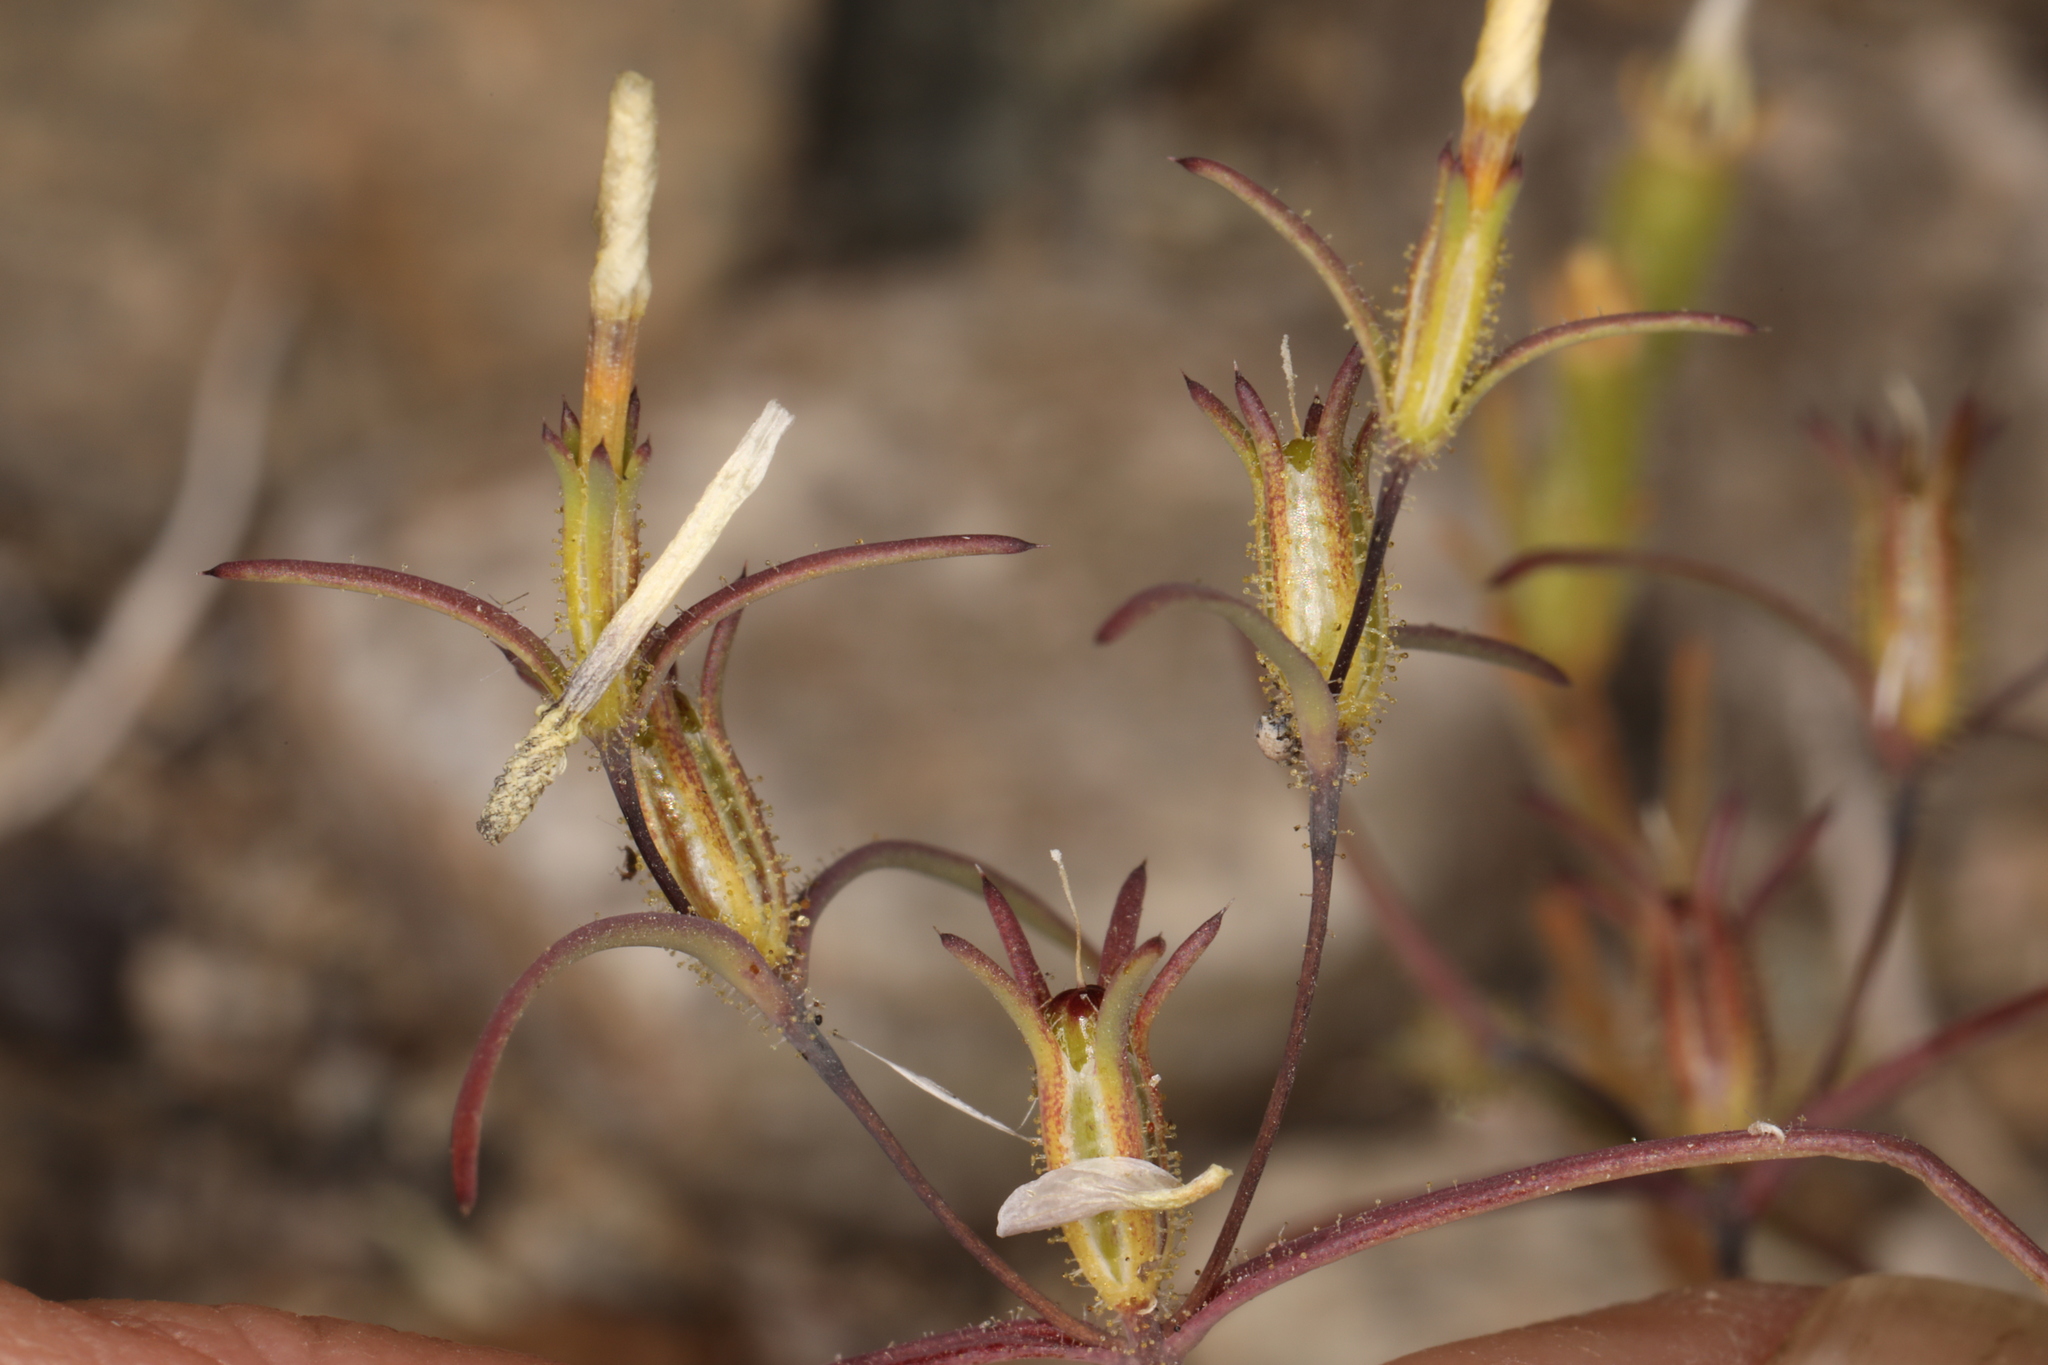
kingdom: Plantae
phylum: Tracheophyta
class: Magnoliopsida
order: Ericales
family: Polemoniaceae
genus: Linanthus
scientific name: Linanthus jonesii
